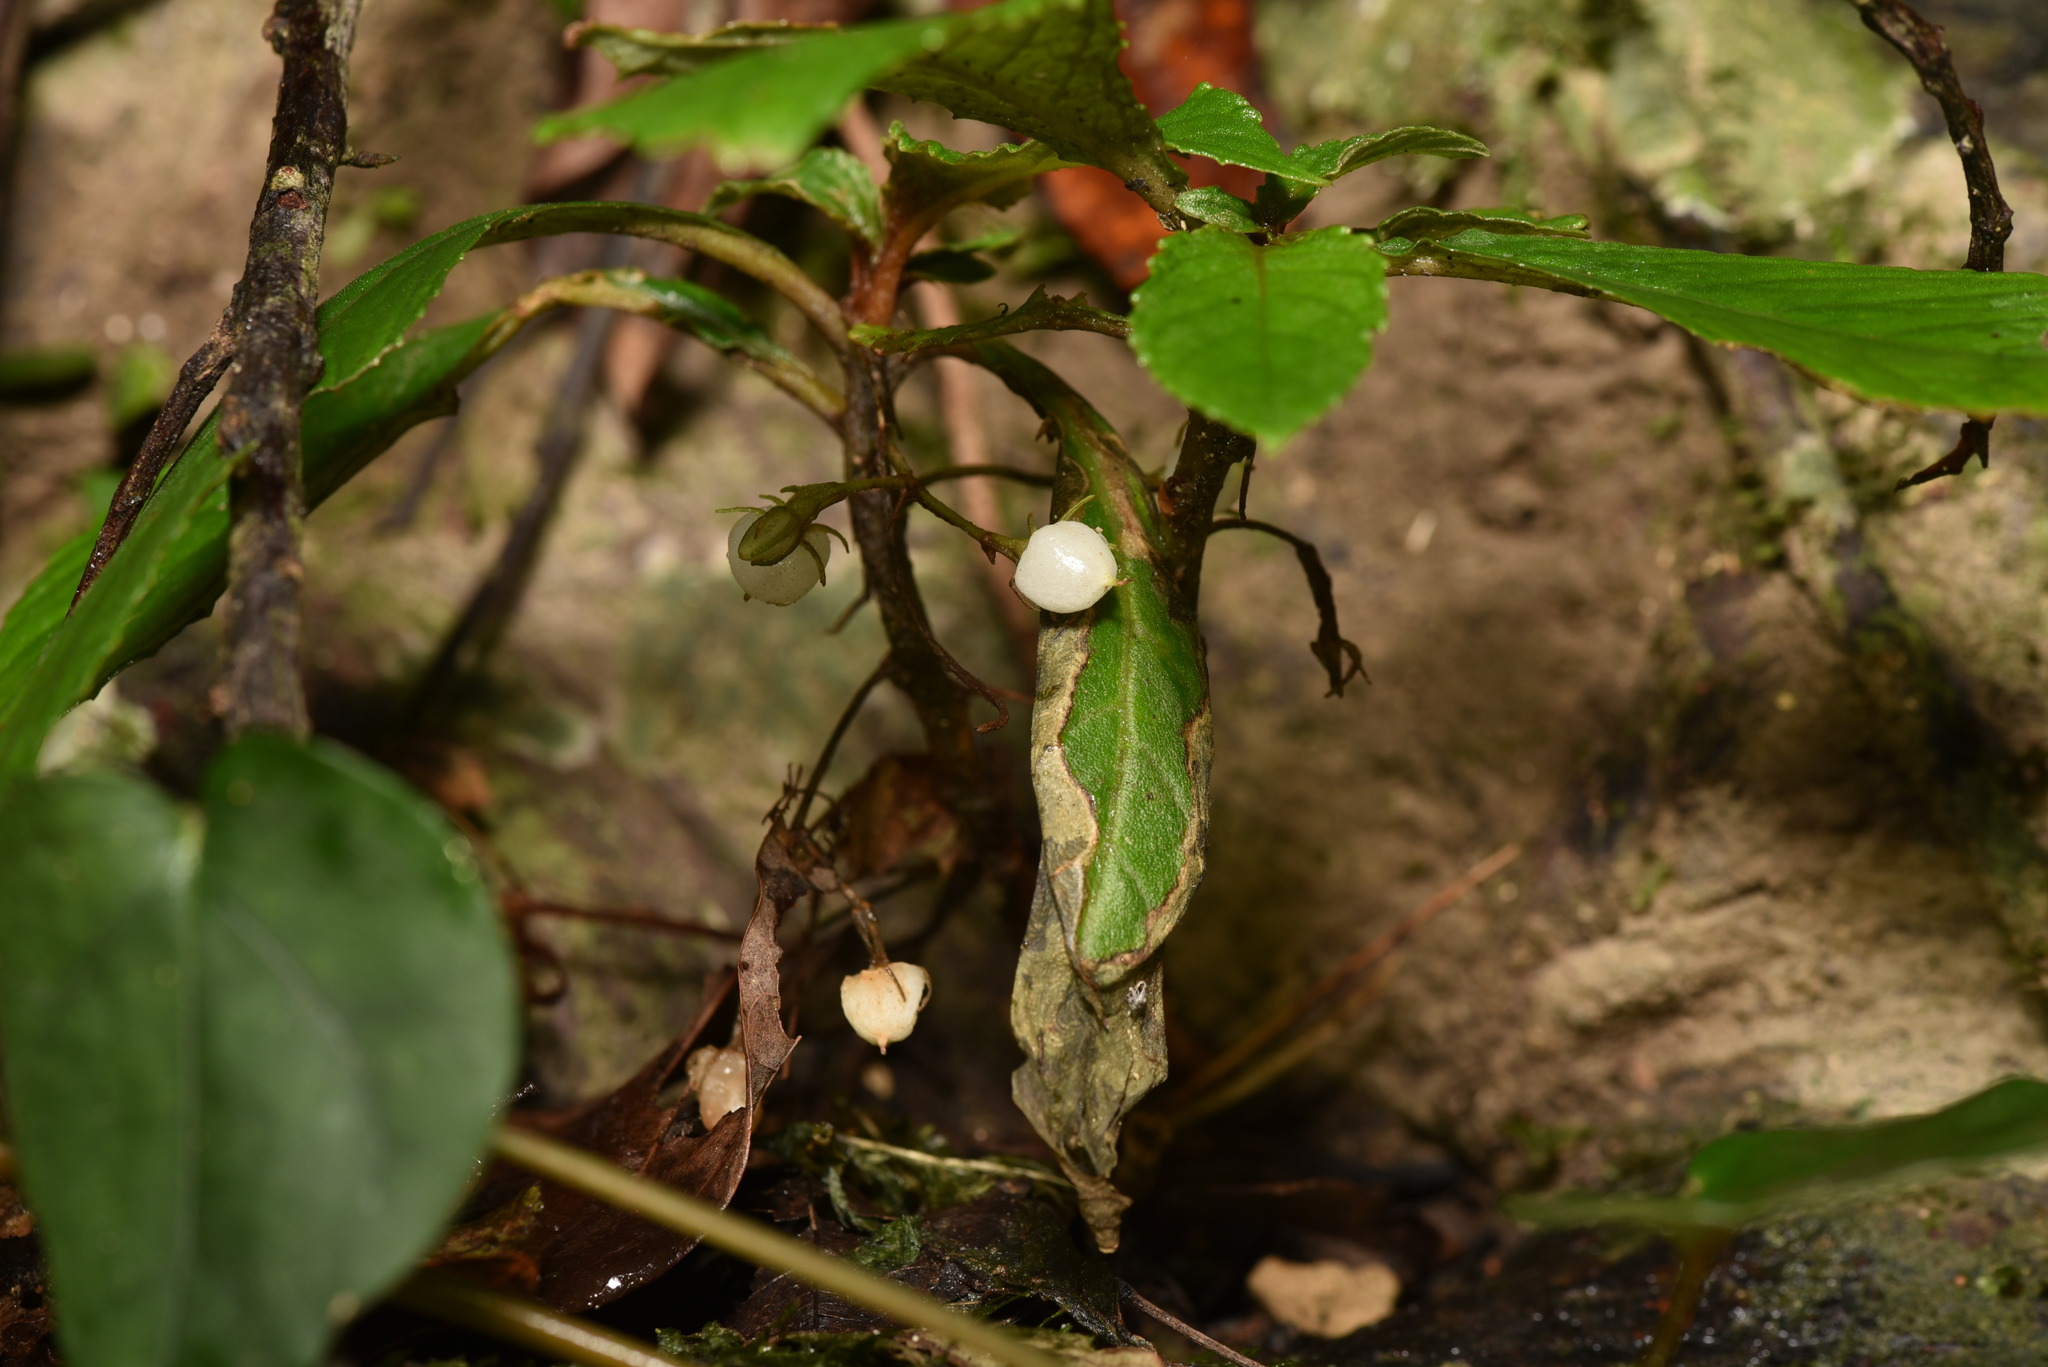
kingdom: Plantae
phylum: Tracheophyta
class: Magnoliopsida
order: Lamiales
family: Gesneriaceae
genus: Rhynchotechum
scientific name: Rhynchotechum discolor
